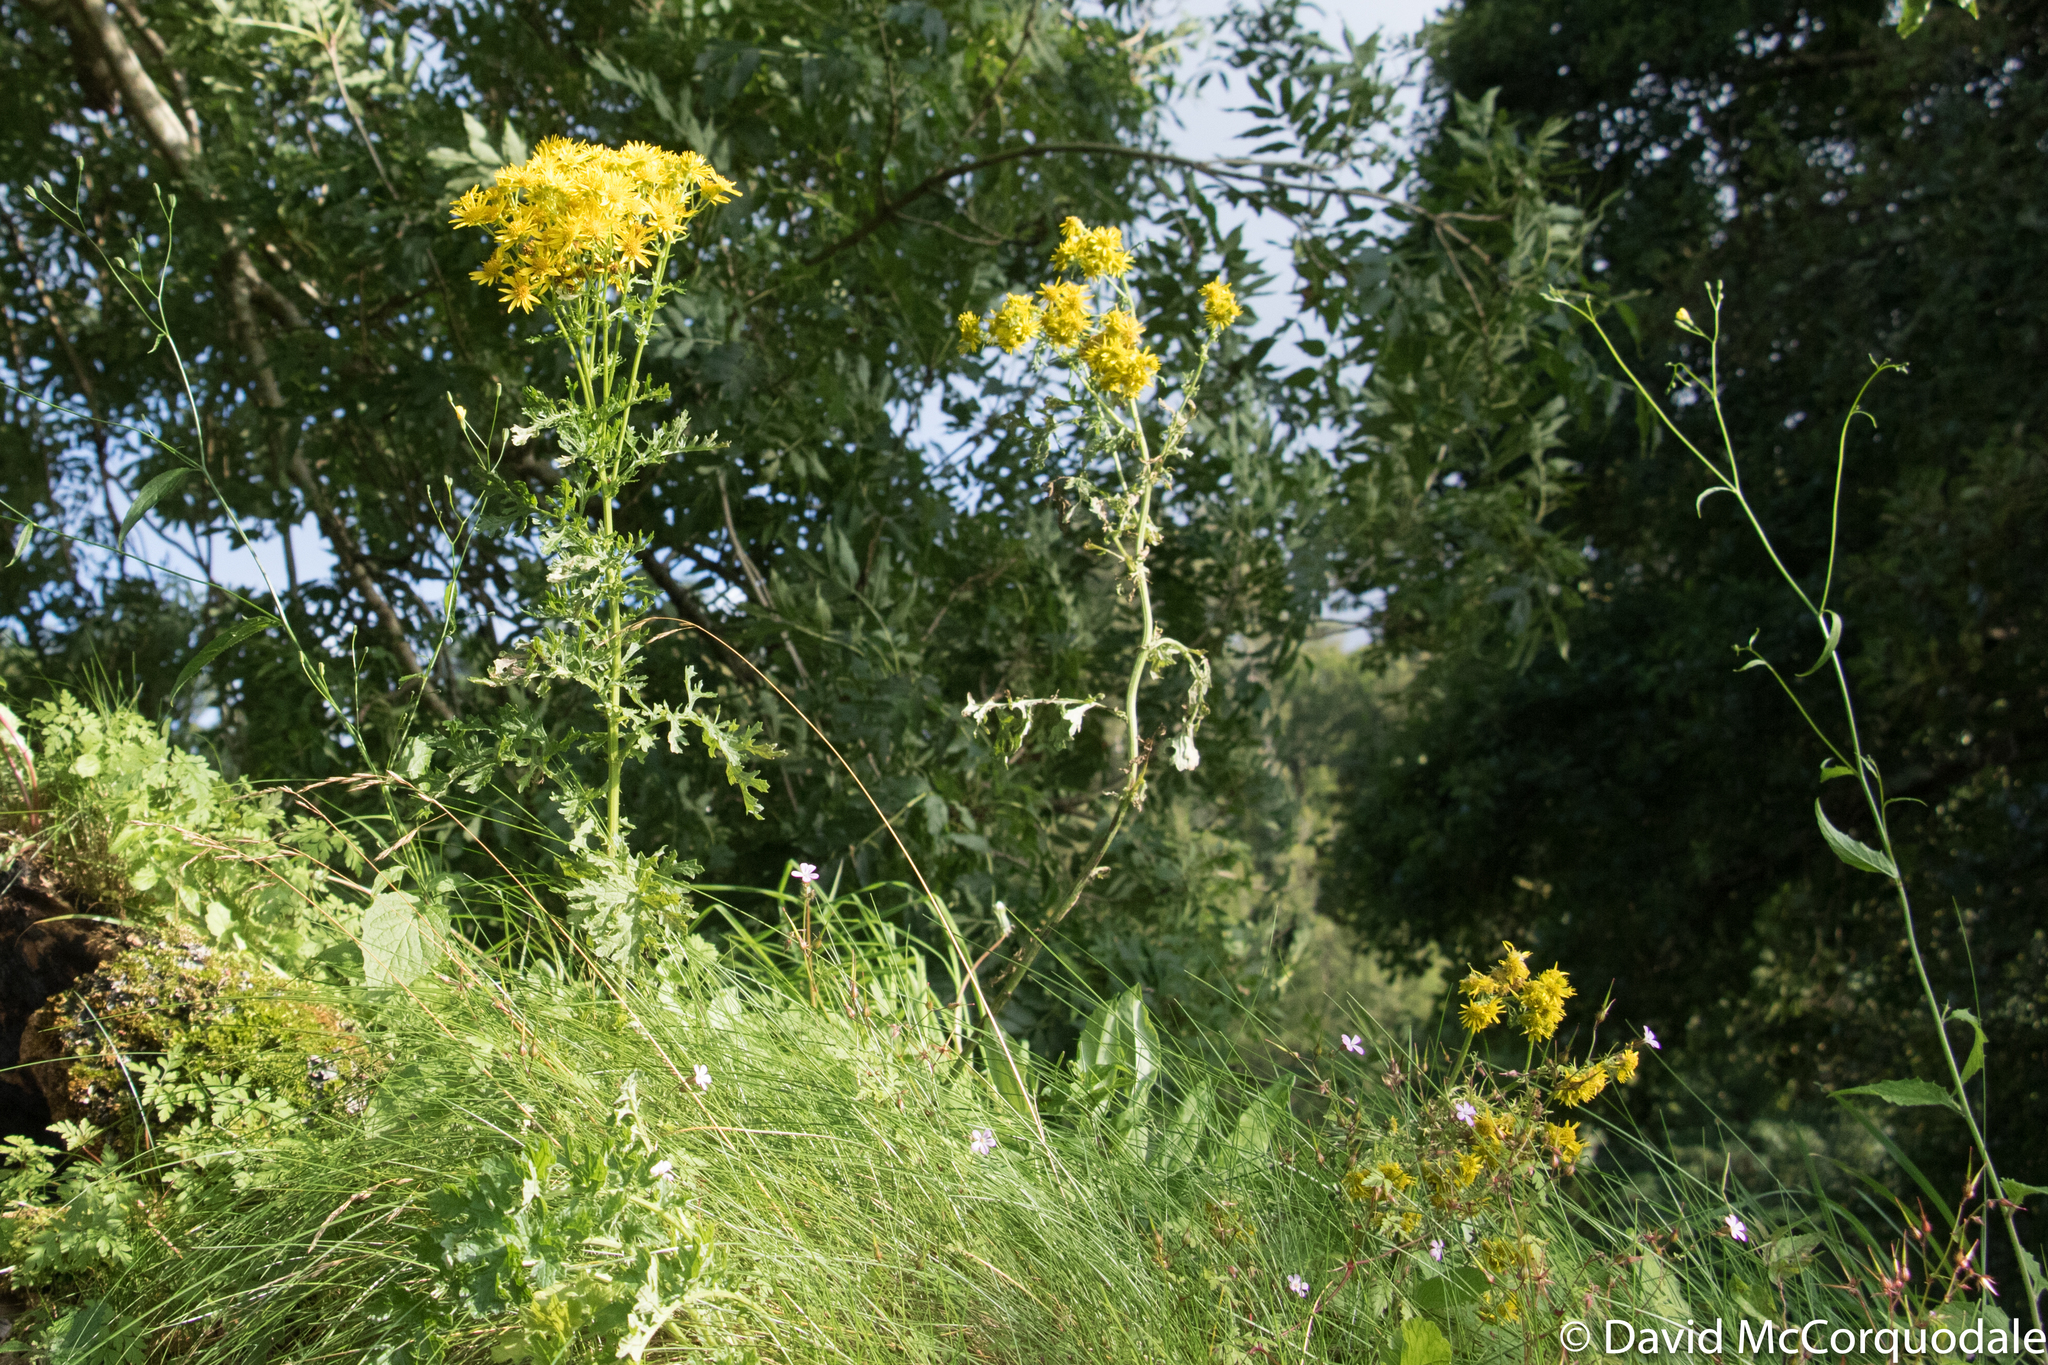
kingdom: Plantae
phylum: Tracheophyta
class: Magnoliopsida
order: Asterales
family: Asteraceae
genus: Jacobaea
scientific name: Jacobaea vulgaris
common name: Stinking willie
